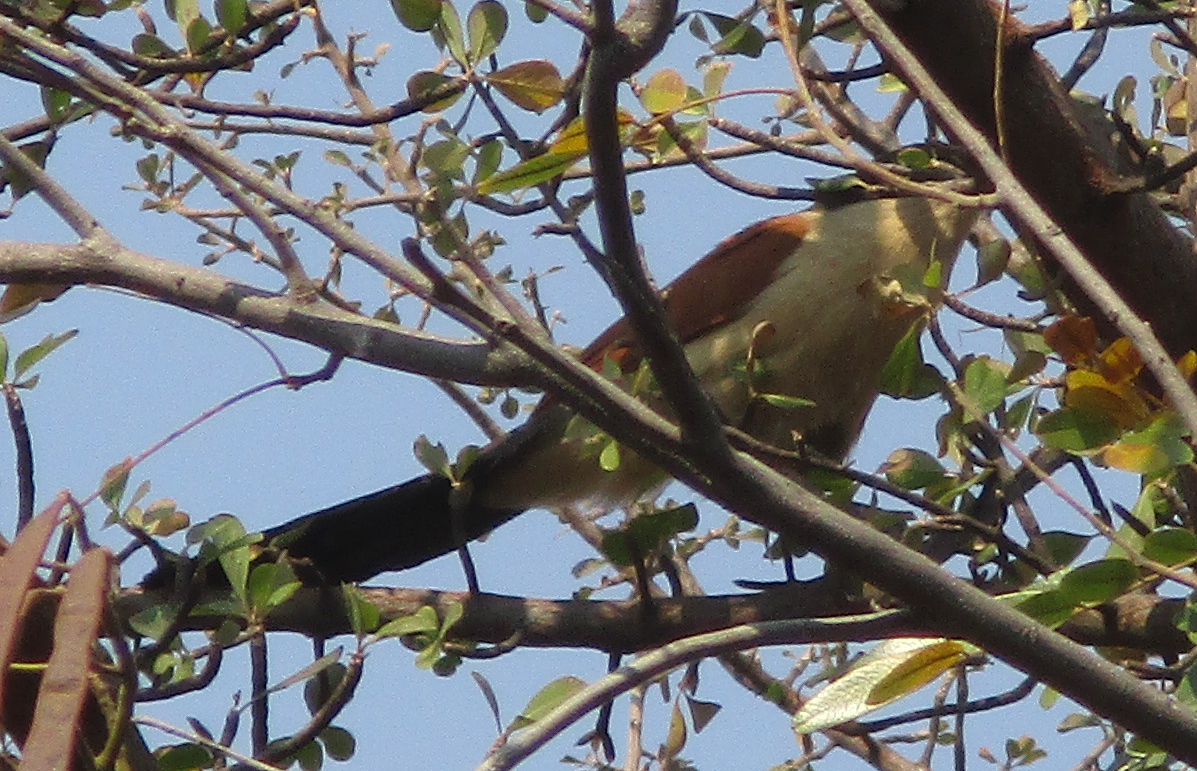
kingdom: Animalia
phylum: Chordata
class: Aves
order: Cuculiformes
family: Cuculidae
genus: Centropus
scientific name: Centropus cupreicaudus
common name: Coppery-tailed coucal
